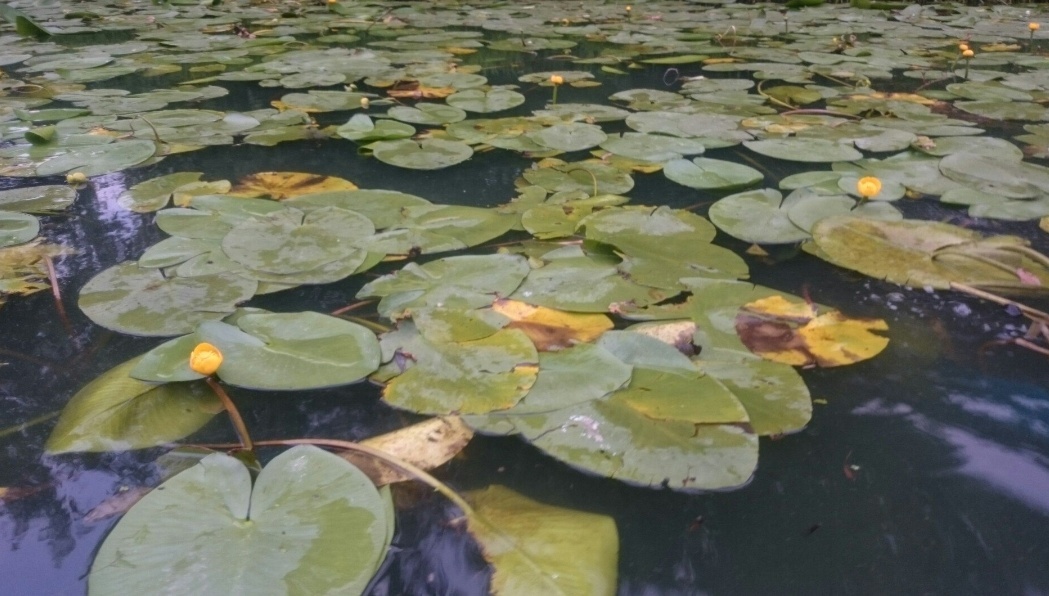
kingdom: Plantae
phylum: Tracheophyta
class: Magnoliopsida
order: Nymphaeales
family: Nymphaeaceae
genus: Nuphar
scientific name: Nuphar lutea
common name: Yellow water-lily
